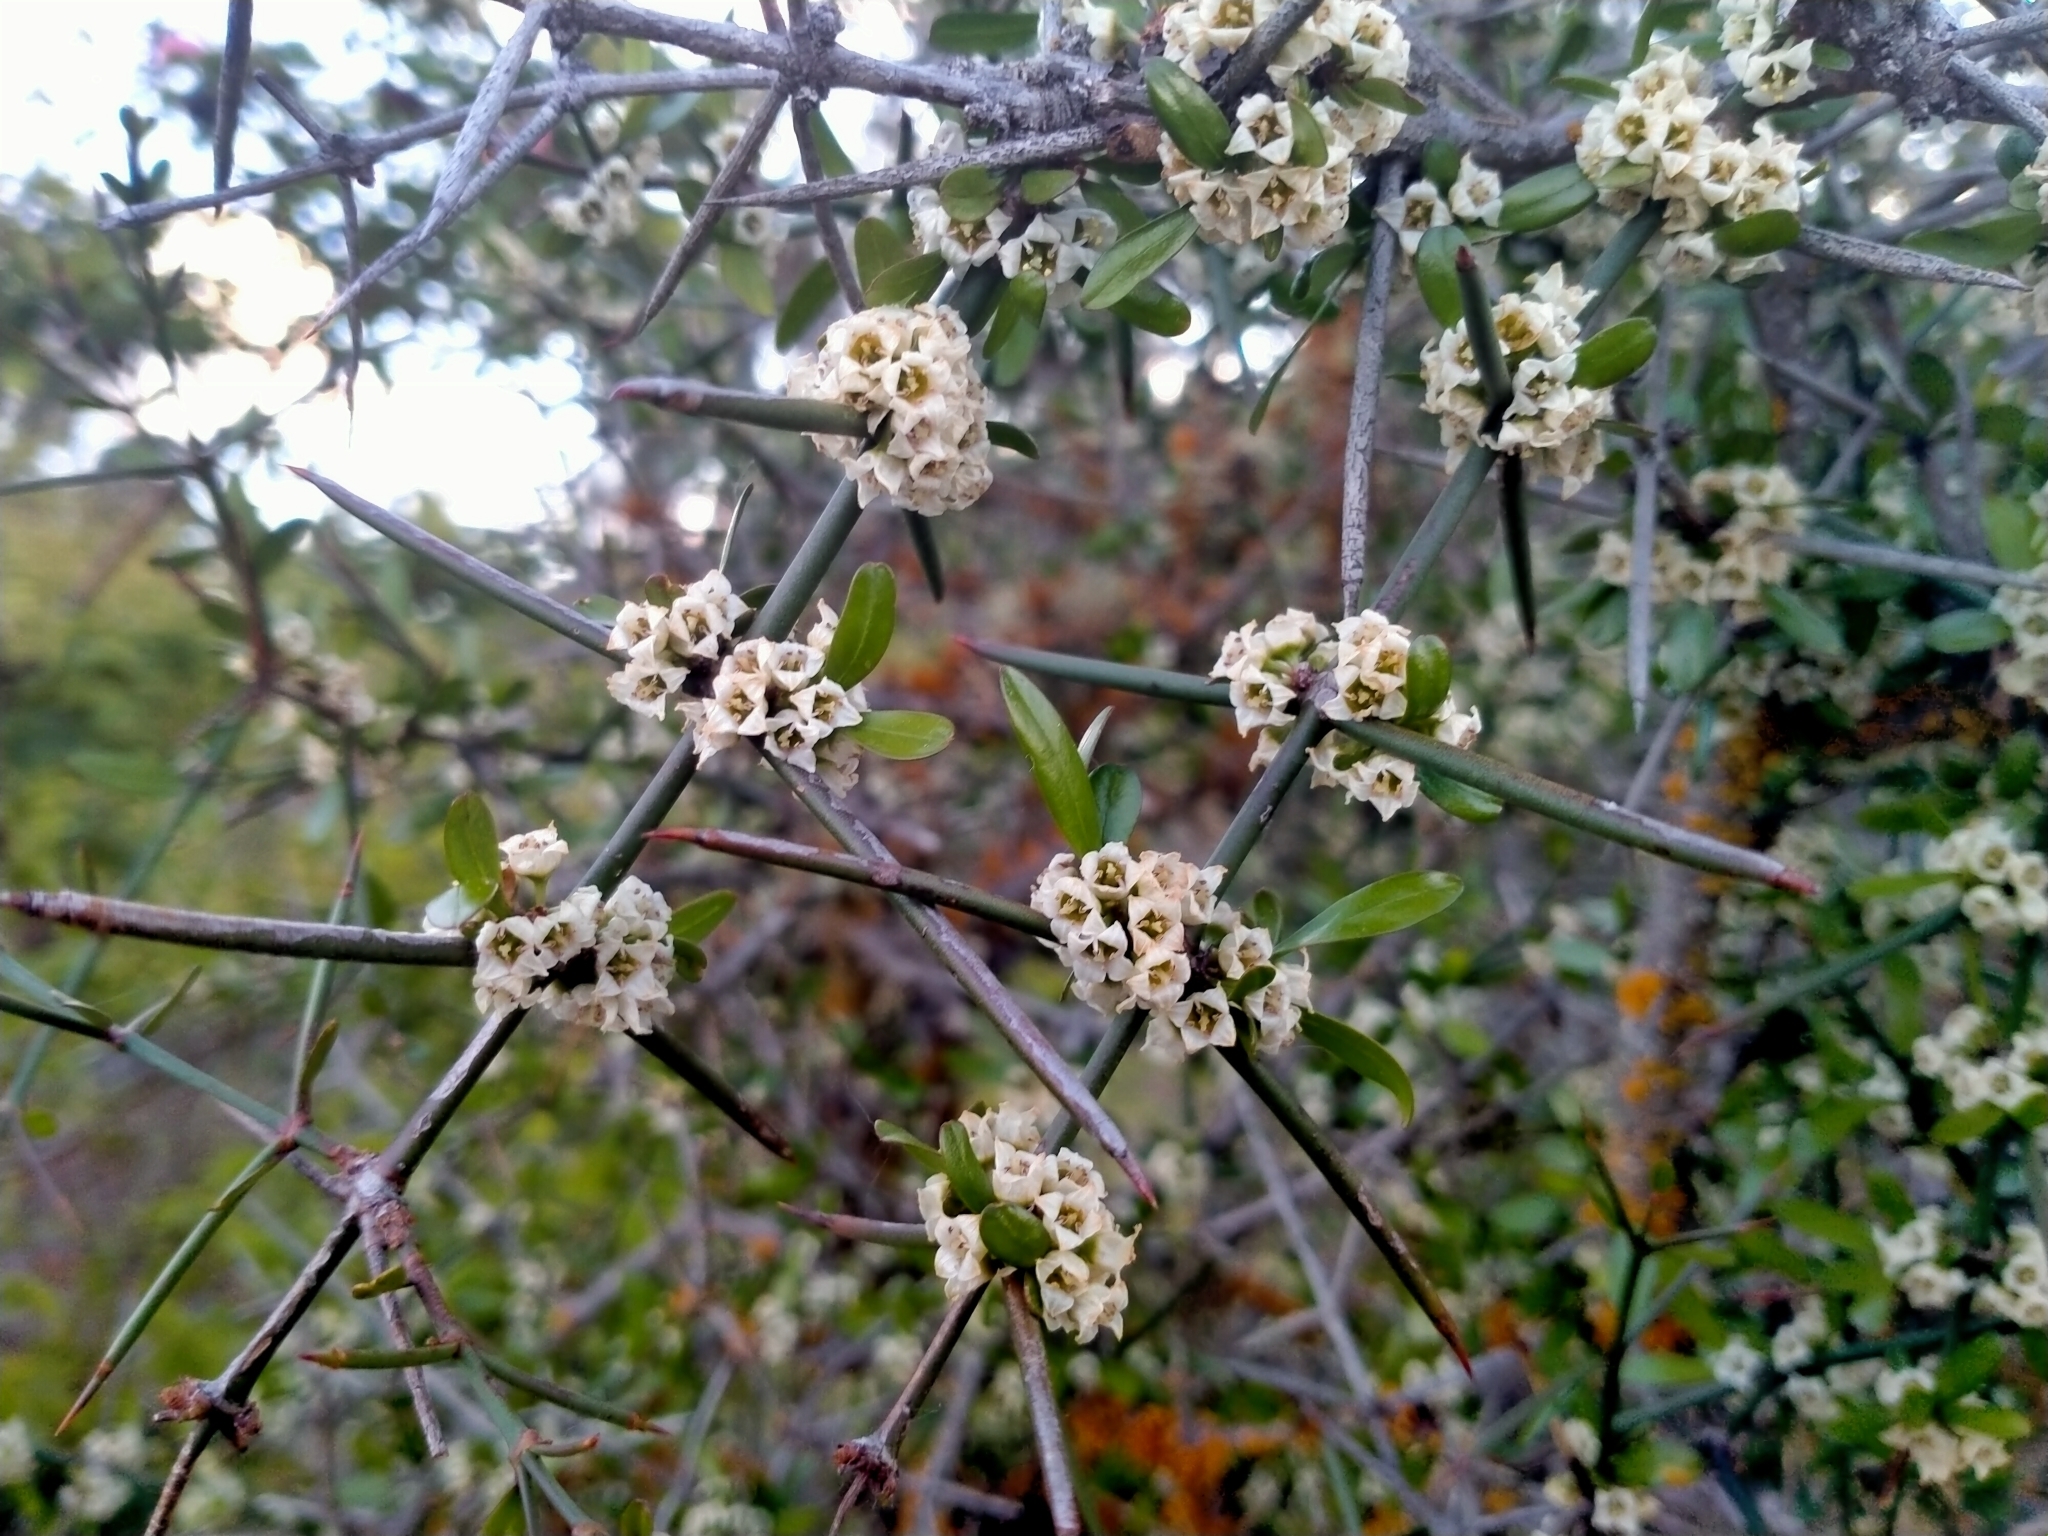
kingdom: Plantae
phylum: Tracheophyta
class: Magnoliopsida
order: Rosales
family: Rhamnaceae
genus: Discaria
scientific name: Discaria toumatou
